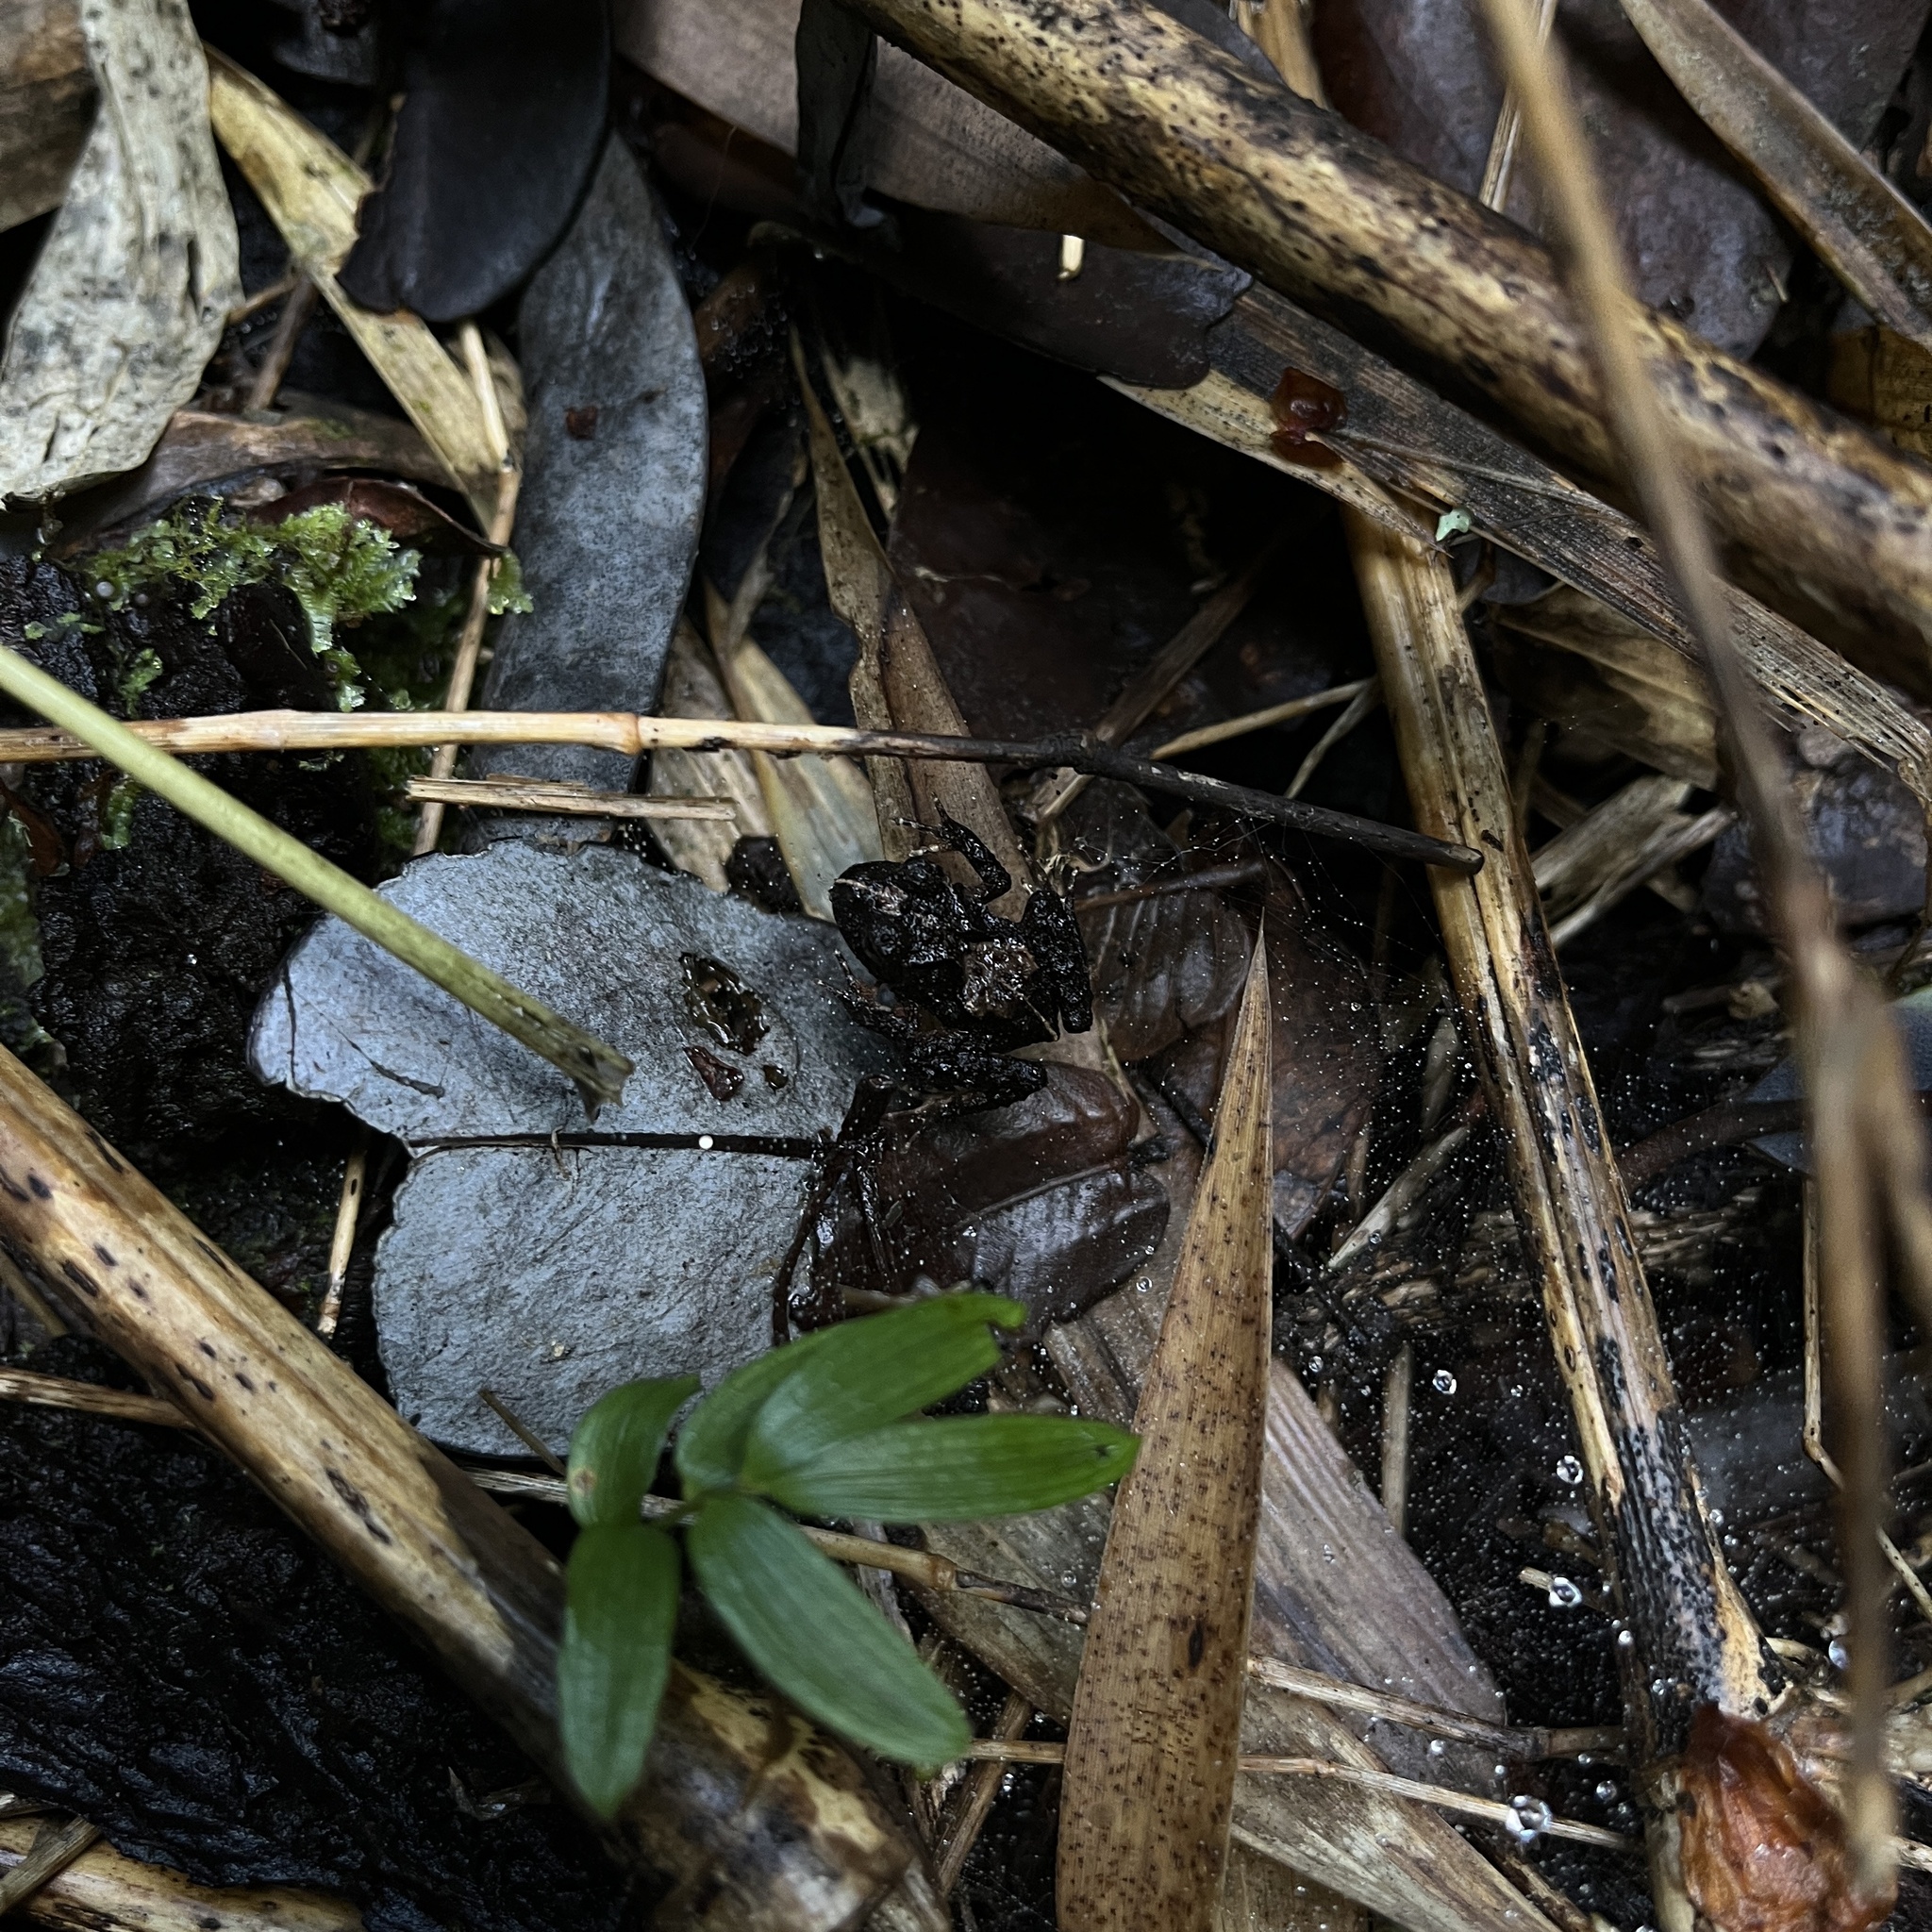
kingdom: Animalia
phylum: Chordata
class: Amphibia
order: Anura
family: Alsodidae
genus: Eupsophus
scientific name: Eupsophus vertebralis
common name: Valdivia ground frog
